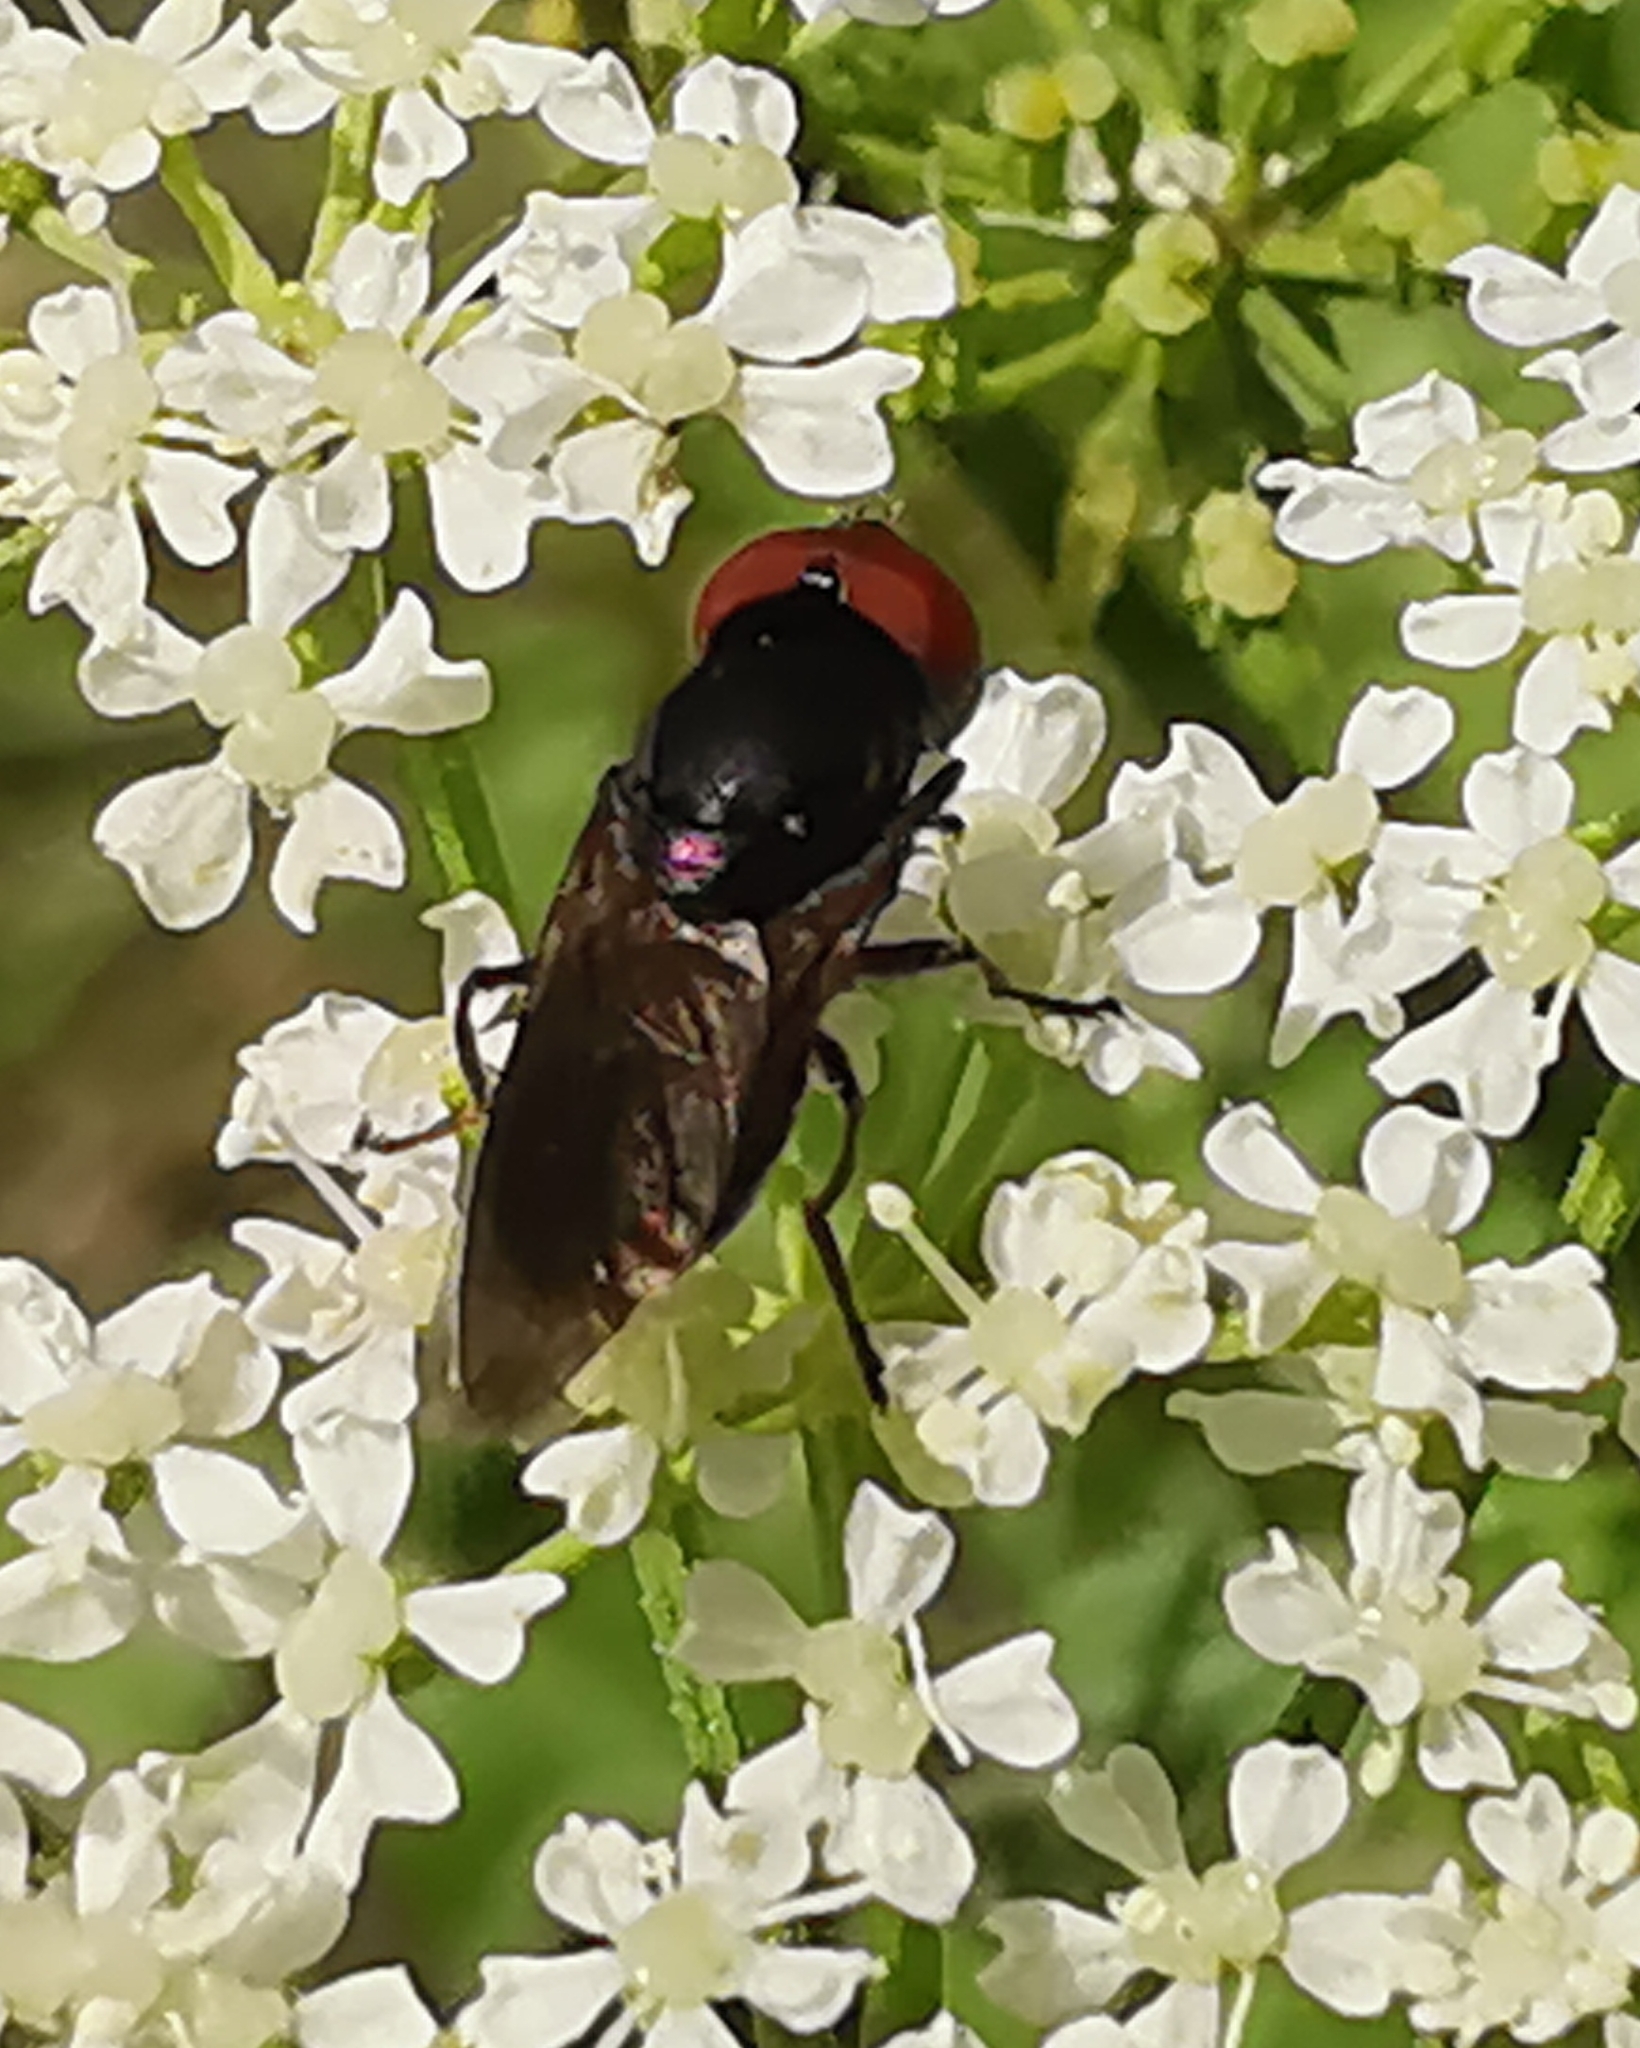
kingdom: Animalia
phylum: Arthropoda
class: Insecta
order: Diptera
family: Syrphidae
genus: Chrysogaster
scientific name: Chrysogaster solstitialis
